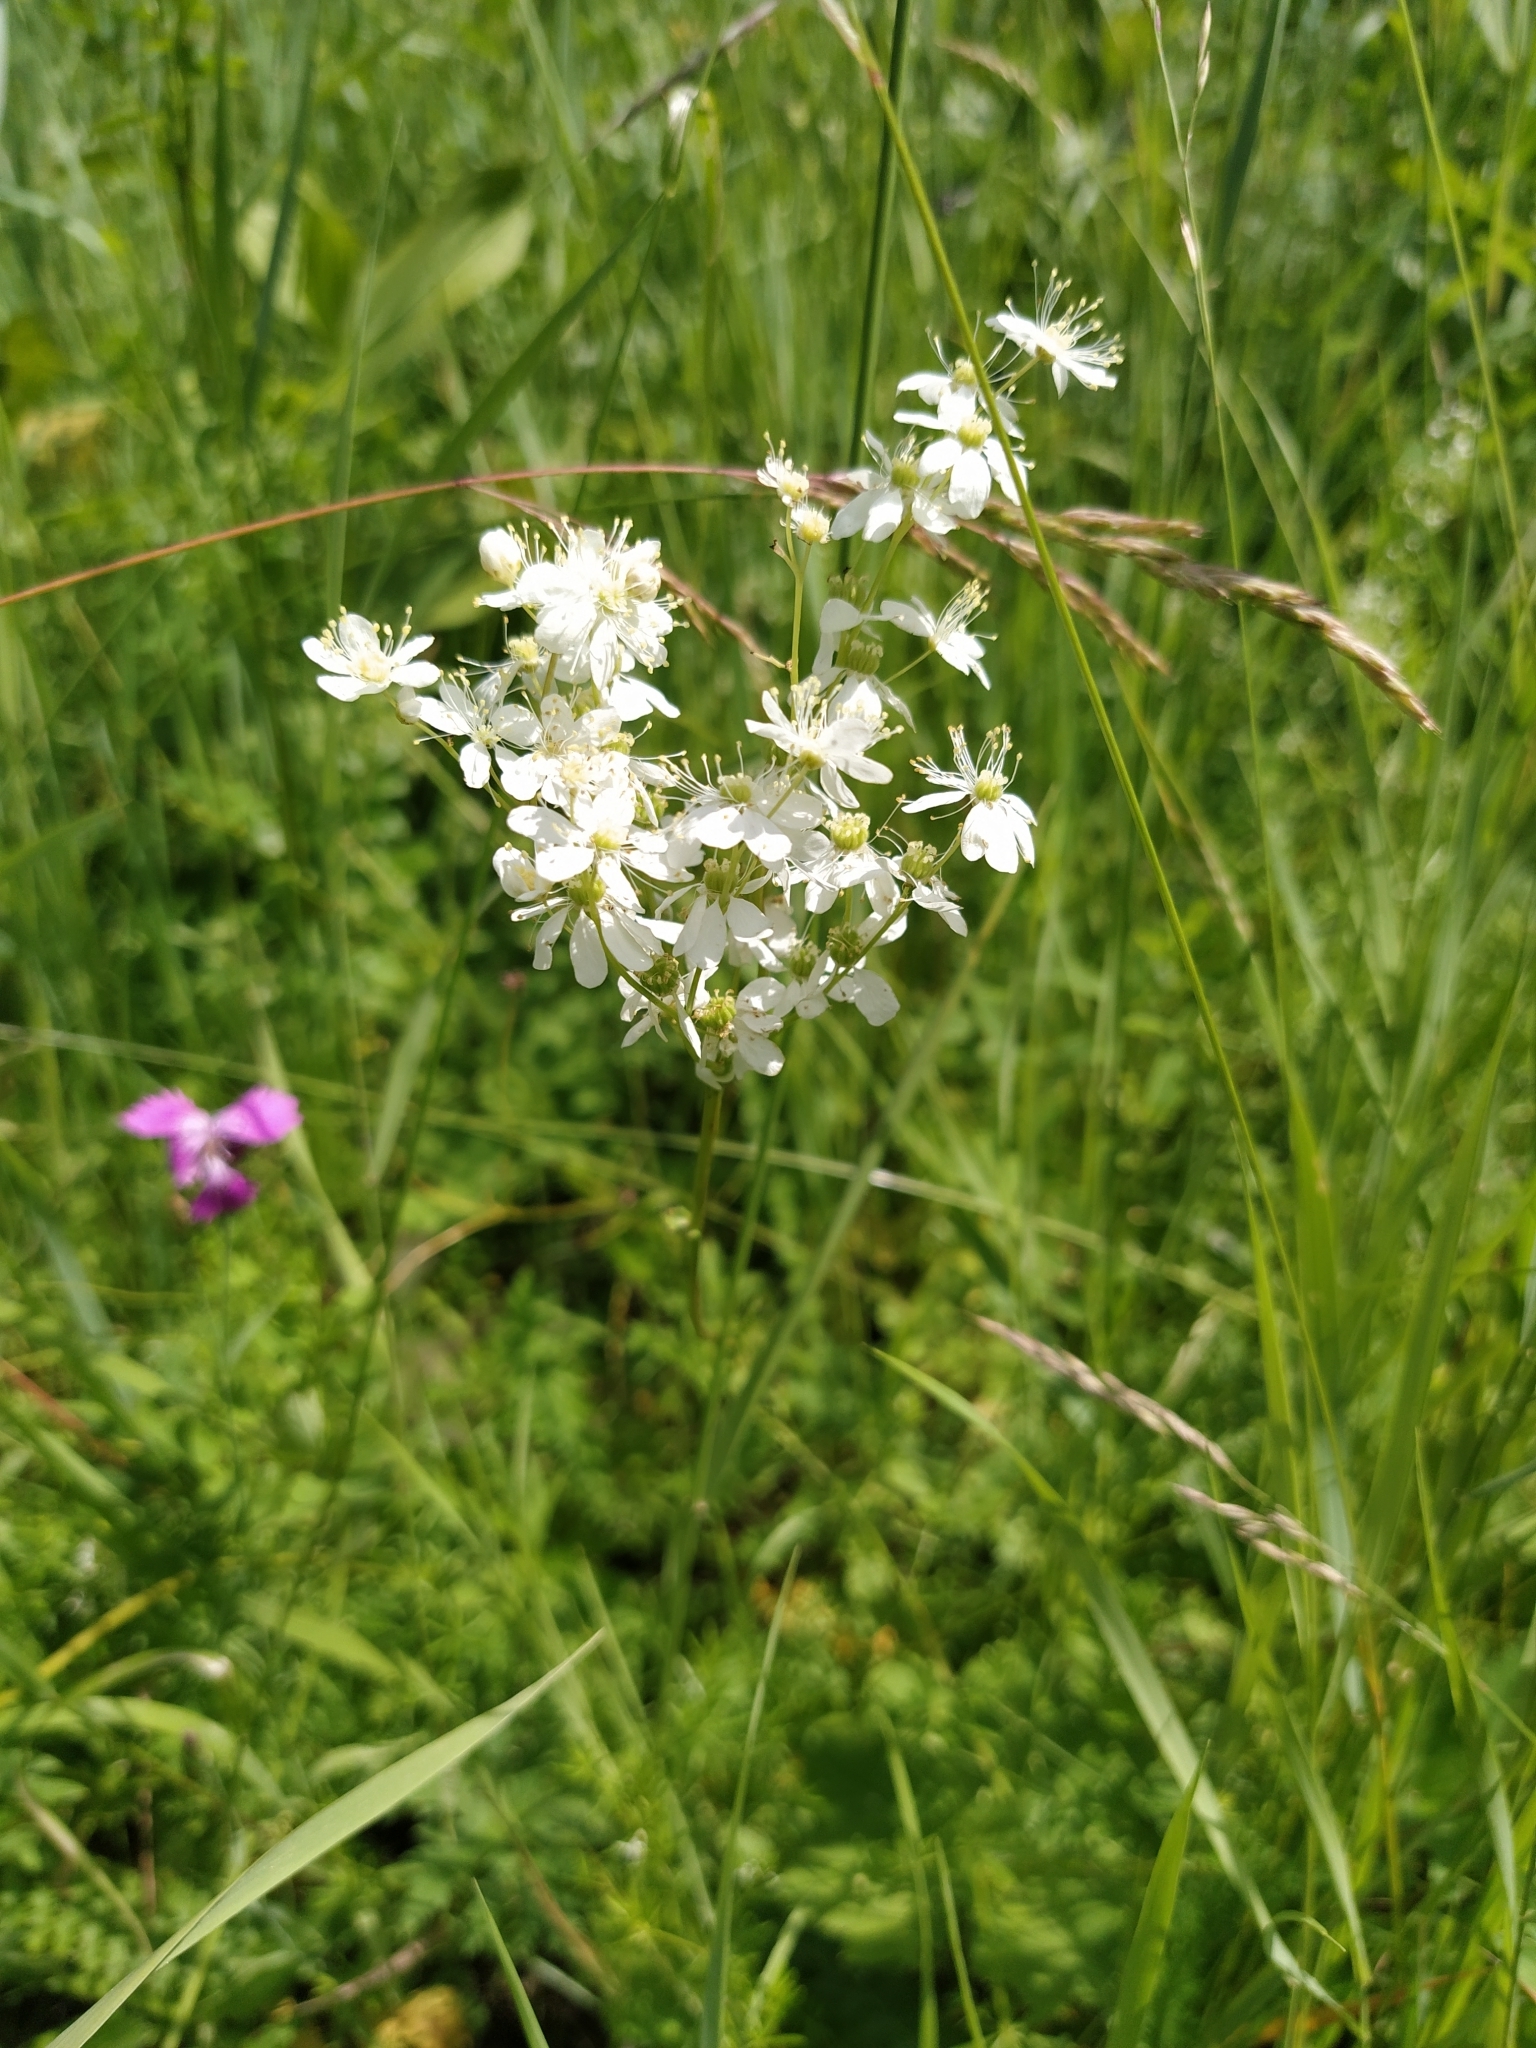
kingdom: Plantae
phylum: Tracheophyta
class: Magnoliopsida
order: Rosales
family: Rosaceae
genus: Filipendula
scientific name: Filipendula vulgaris
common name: Dropwort
